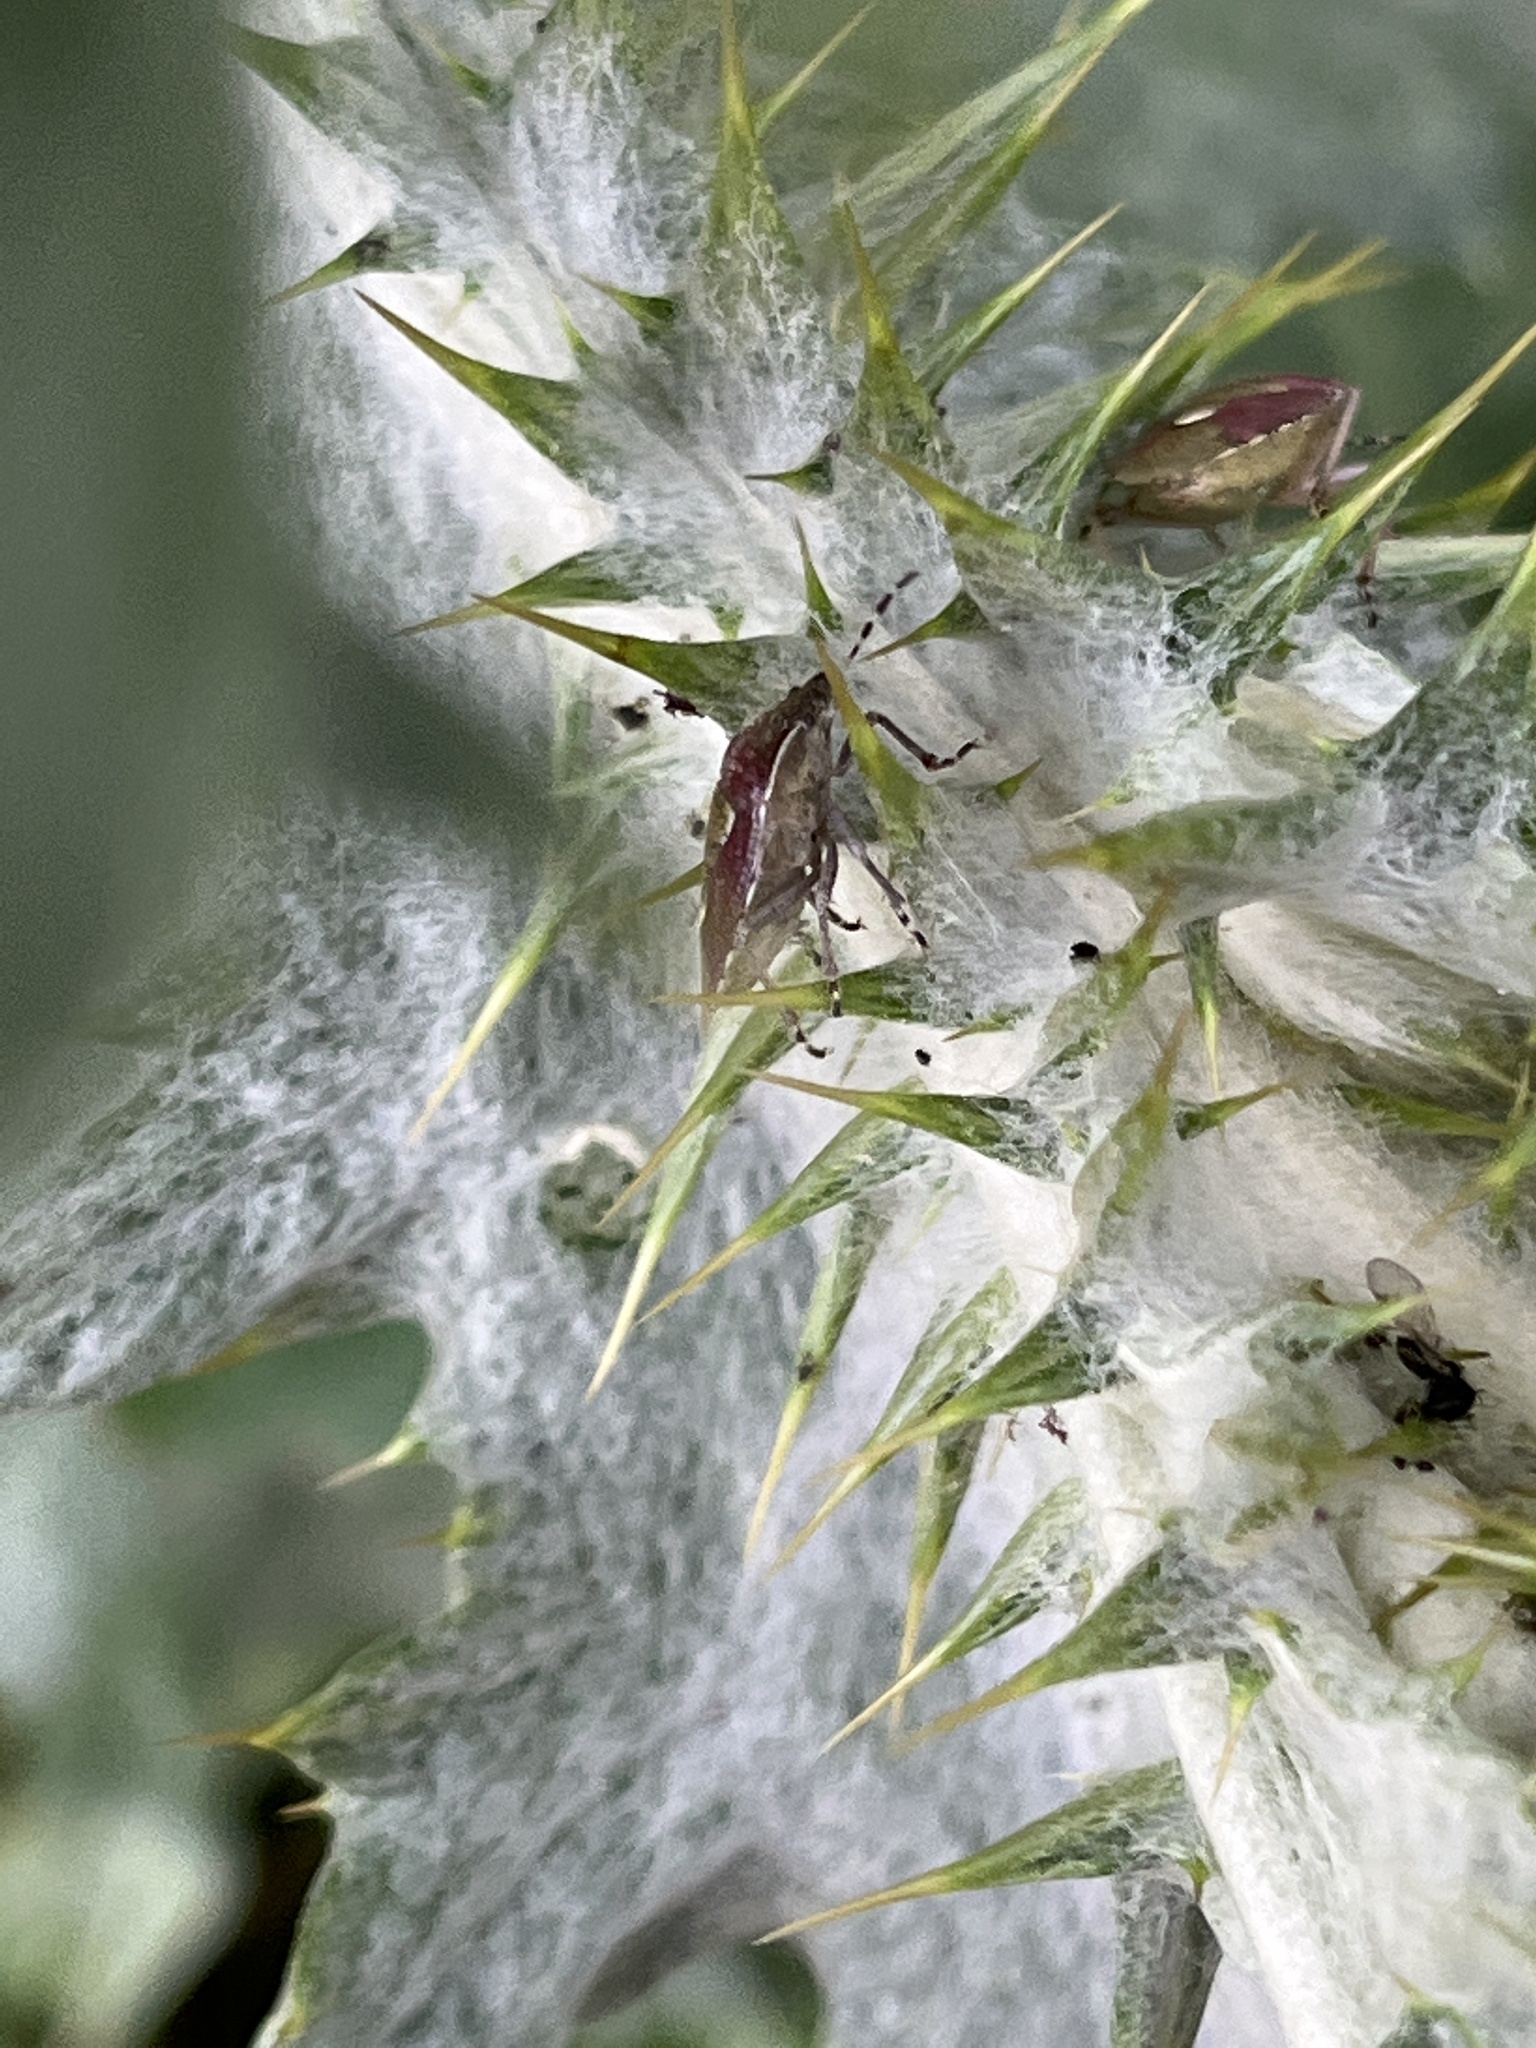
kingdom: Animalia
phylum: Arthropoda
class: Insecta
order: Hemiptera
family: Pentatomidae
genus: Dolycoris
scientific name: Dolycoris baccarum
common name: Sloe bug
